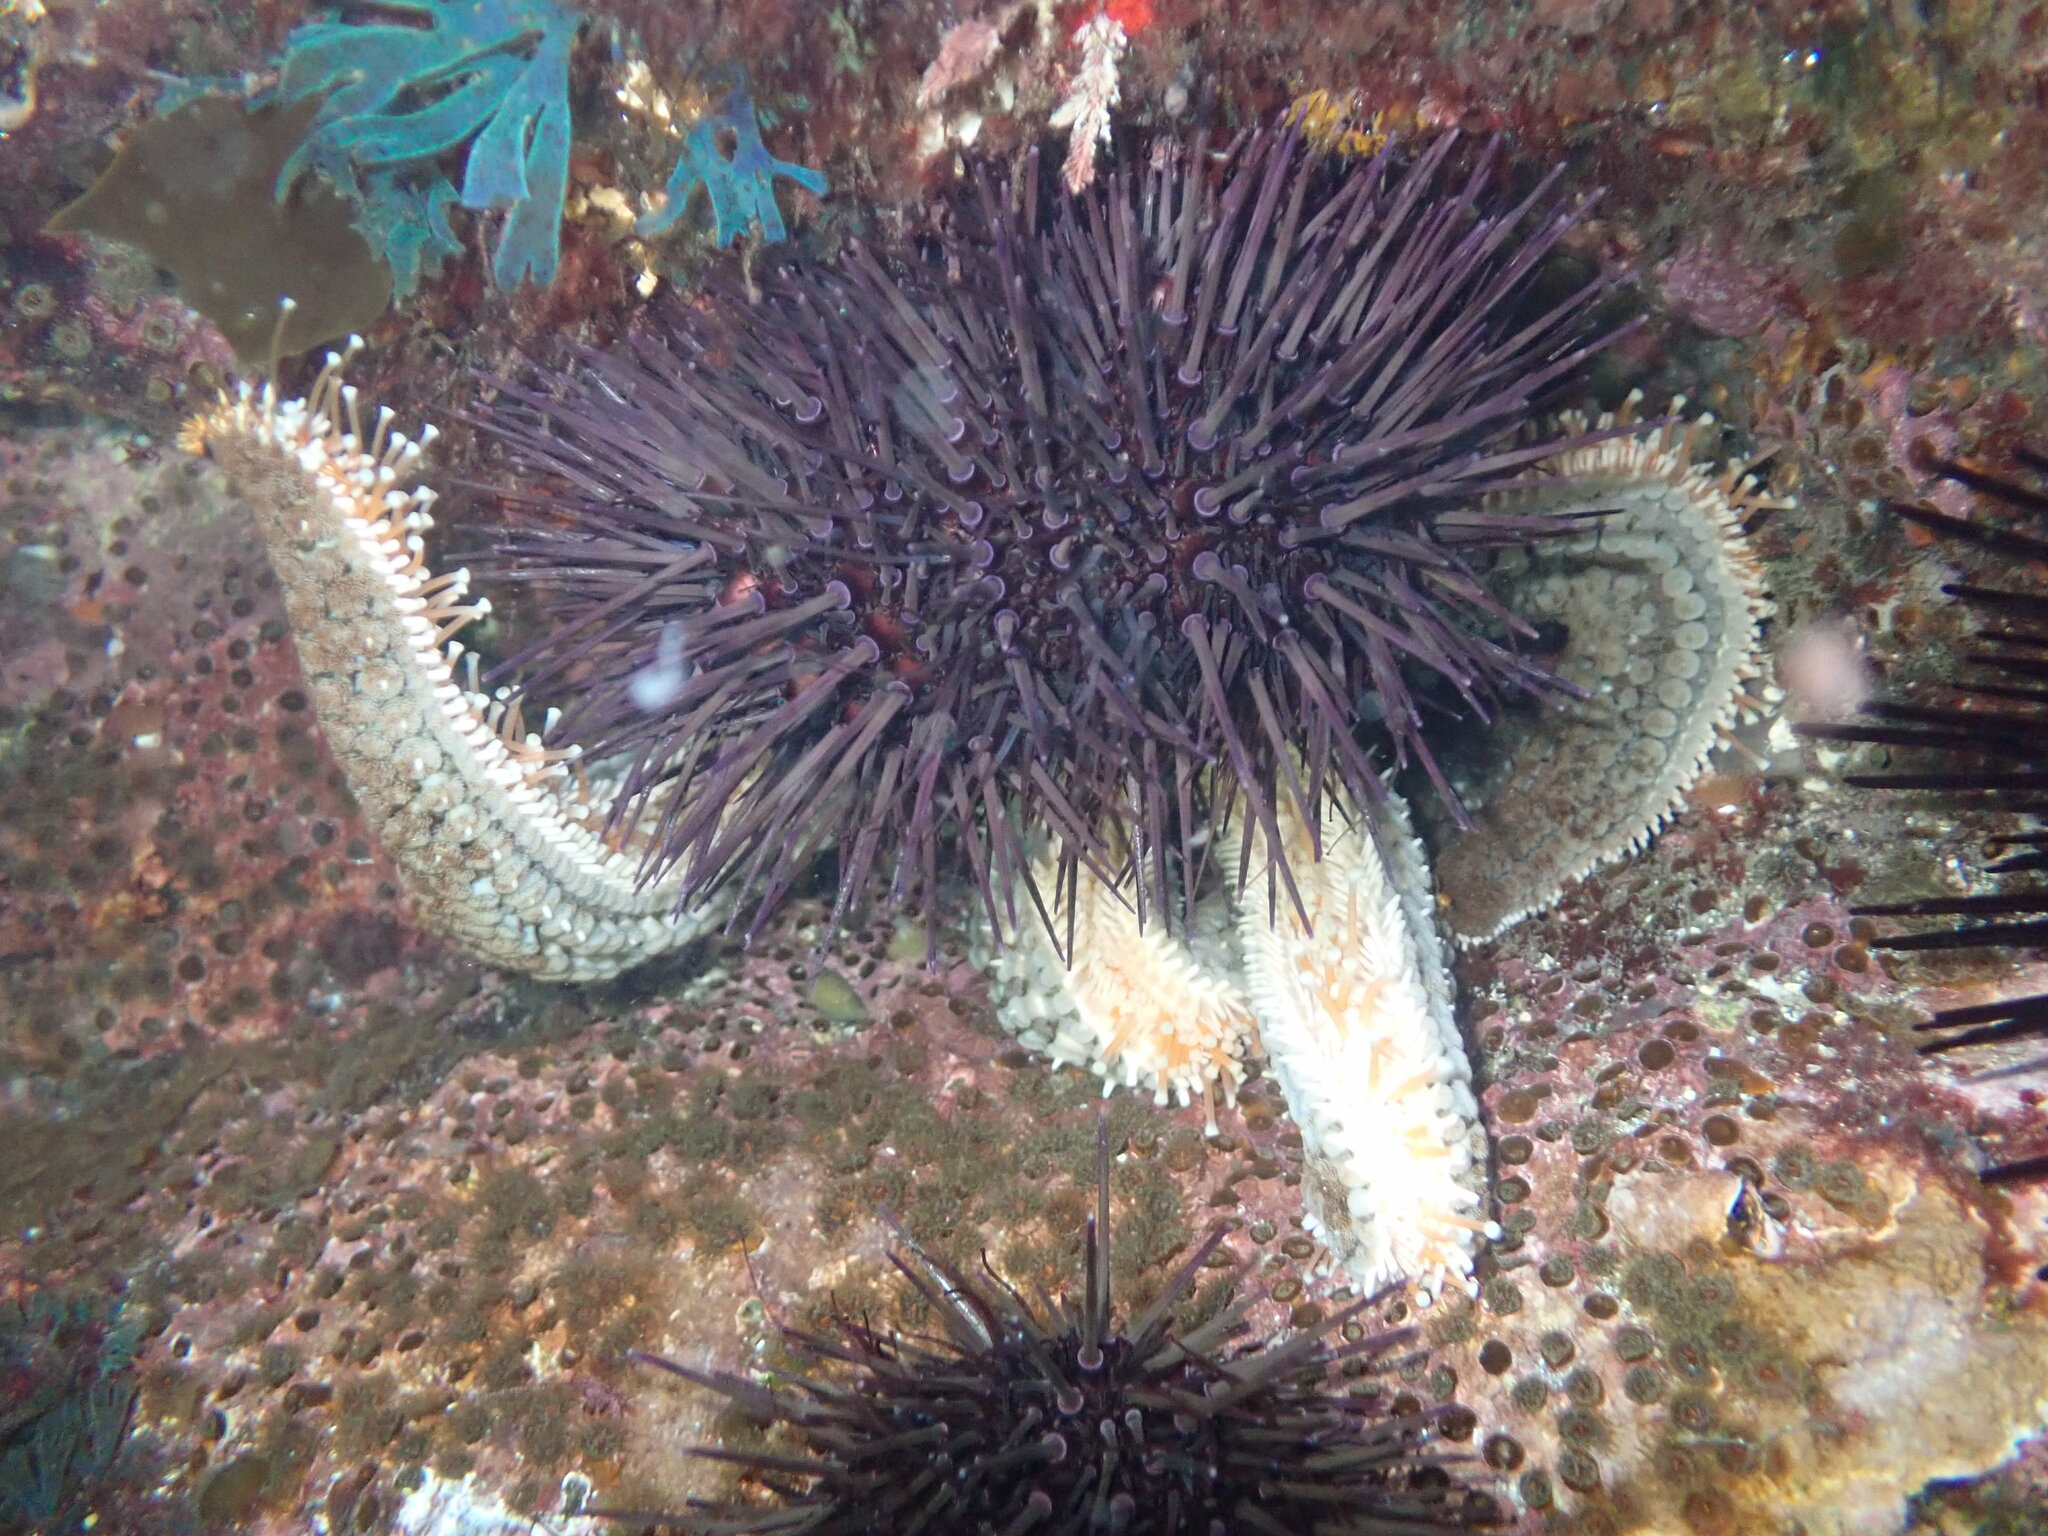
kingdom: Animalia
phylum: Echinodermata
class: Echinoidea
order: Camarodonta
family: Echinometridae
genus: Heliocidaris
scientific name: Heliocidaris erythrogramma
